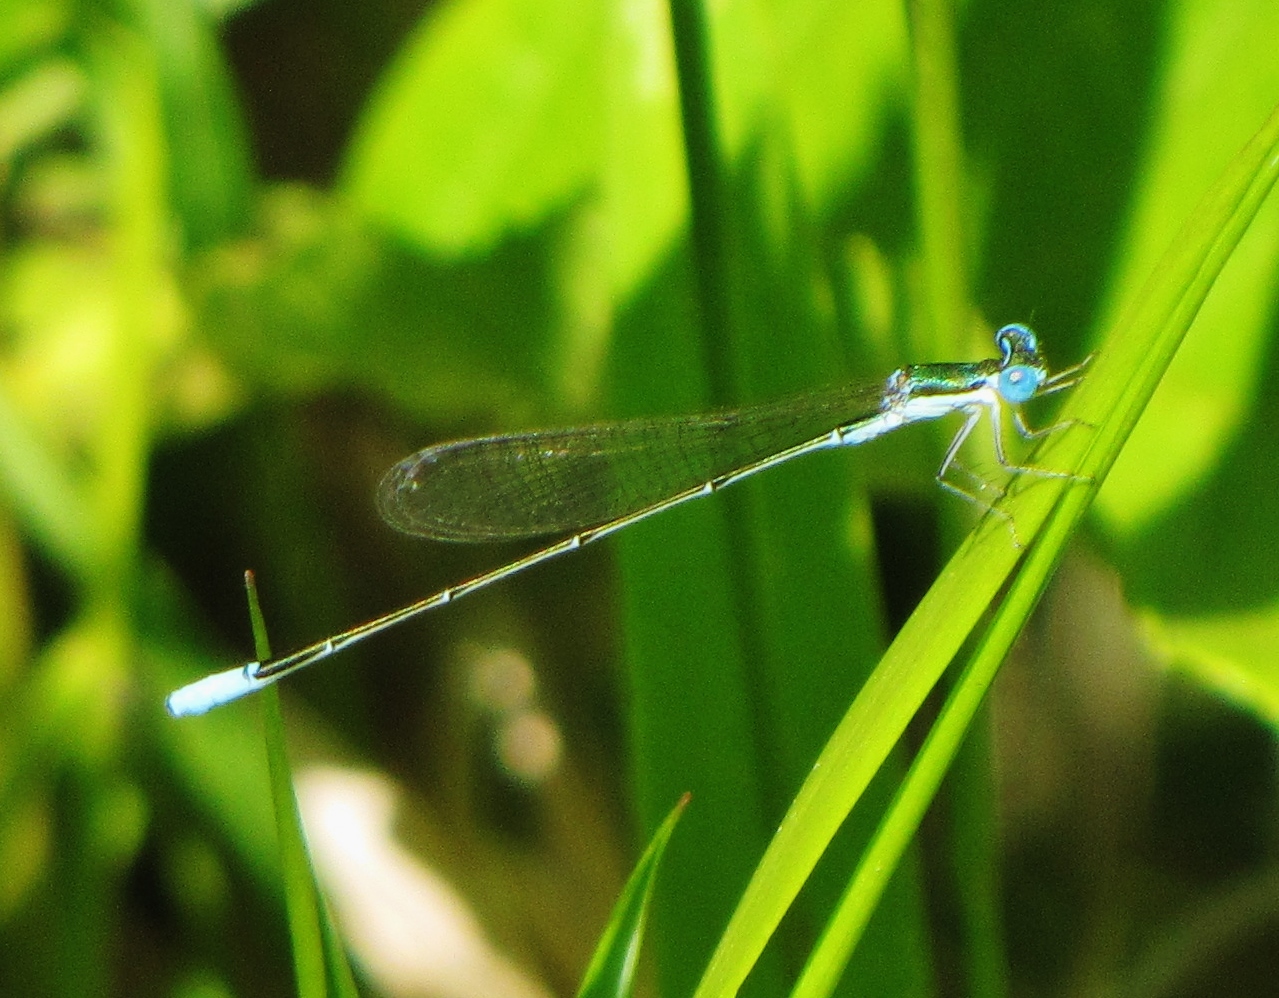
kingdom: Animalia
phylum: Arthropoda
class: Insecta
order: Odonata
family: Coenagrionidae
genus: Nehalennia
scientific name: Nehalennia gracilis
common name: Sphagnum sprite
